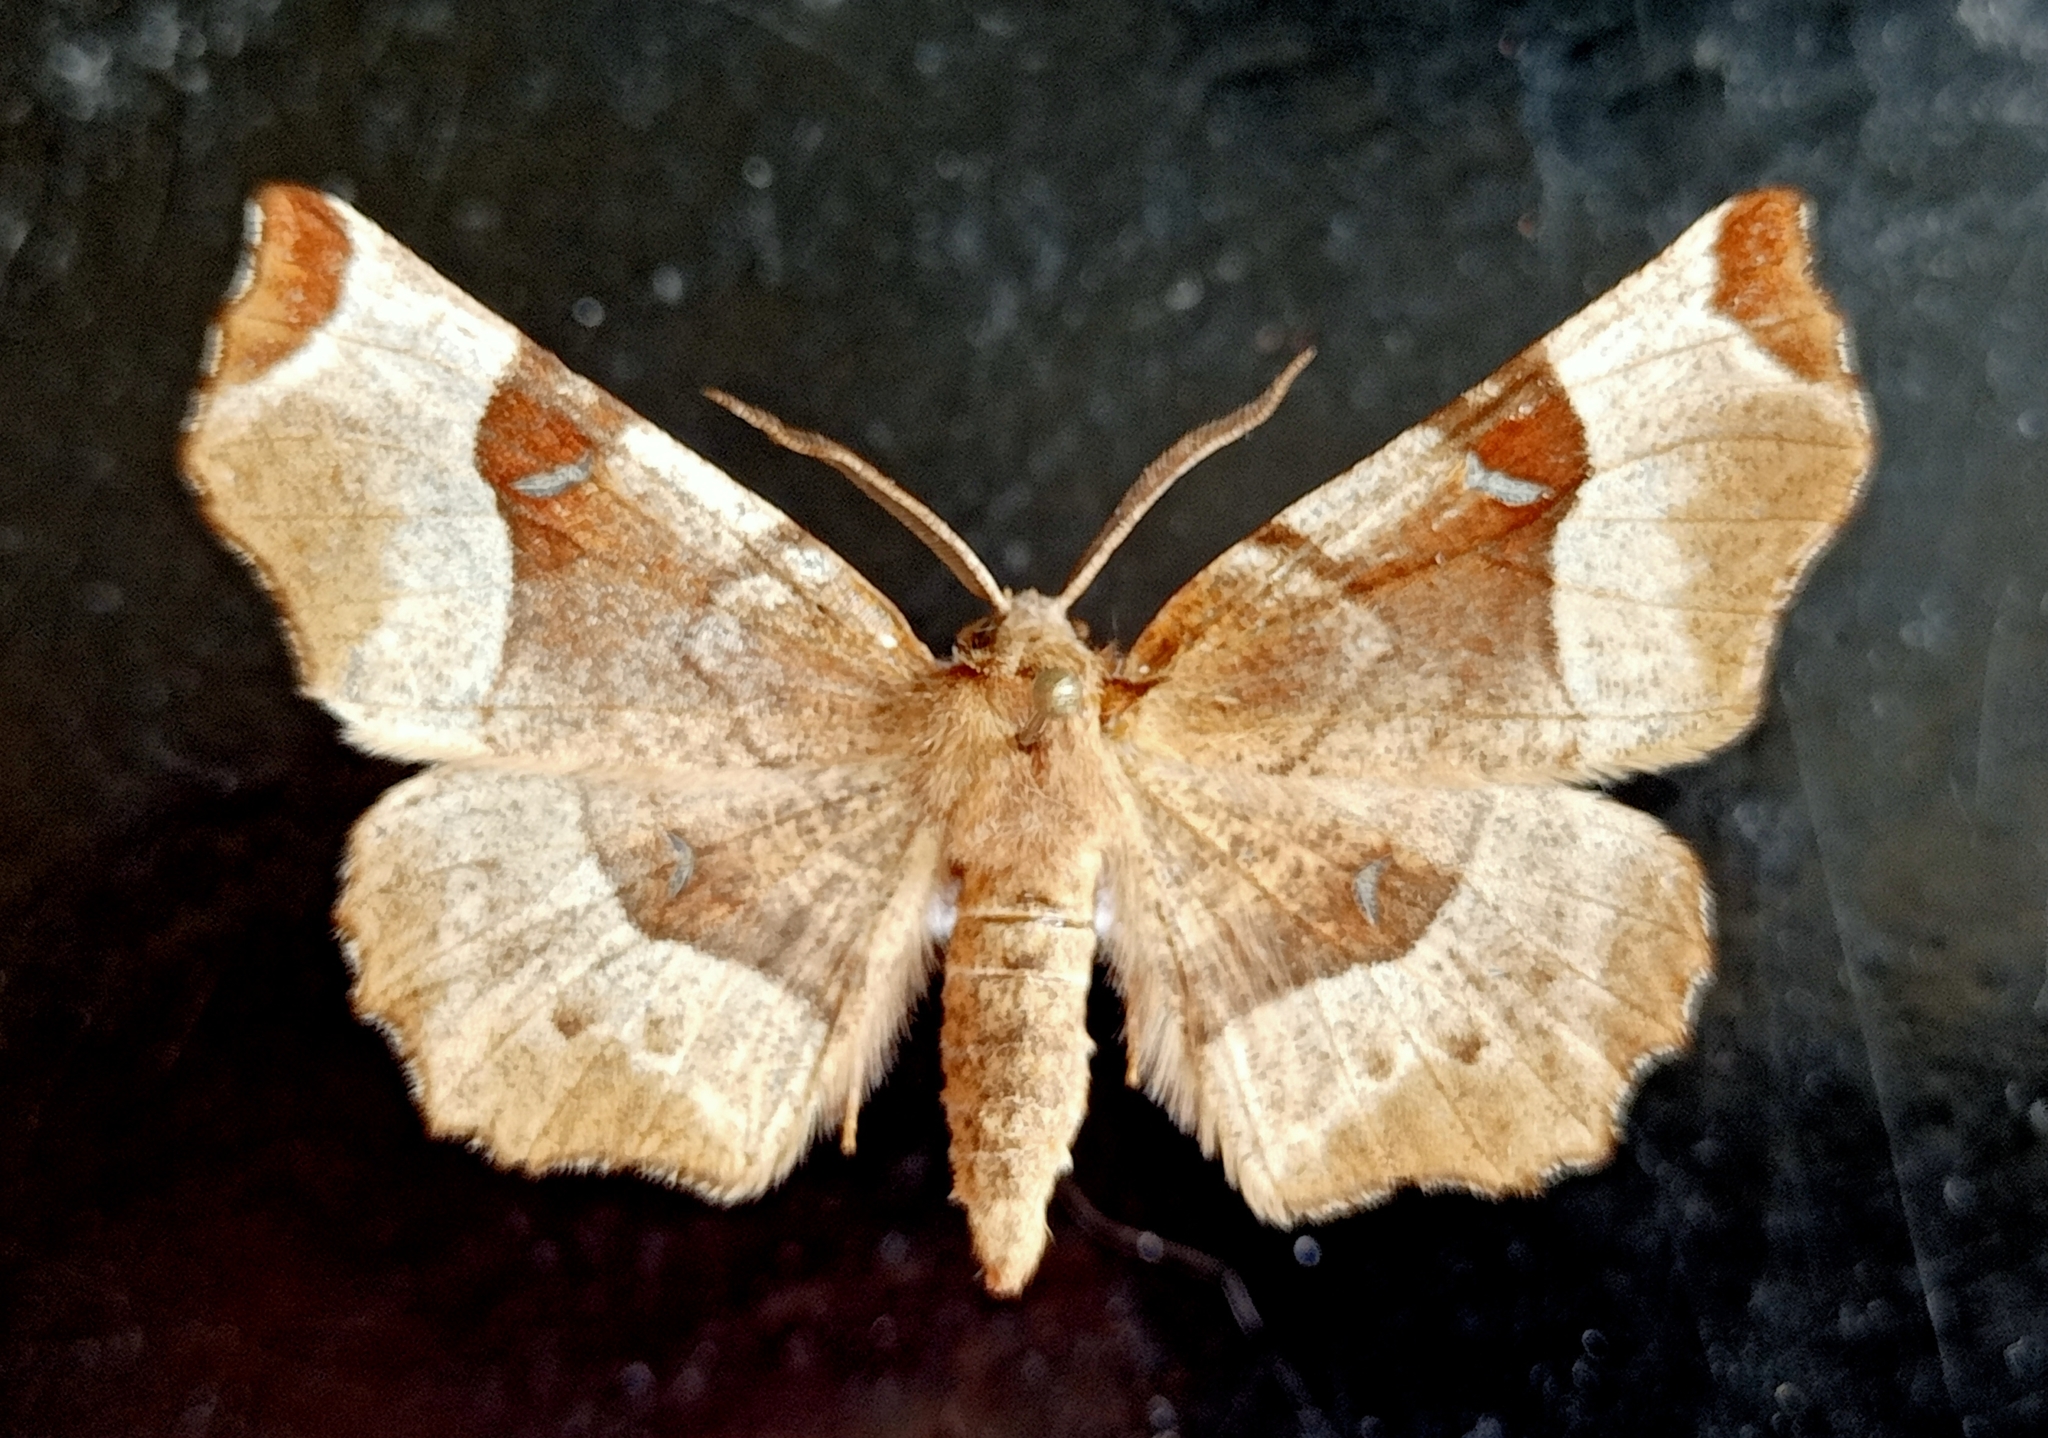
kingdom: Animalia
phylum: Arthropoda
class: Insecta
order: Lepidoptera
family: Geometridae
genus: Selenia
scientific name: Selenia tetralunaria
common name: Purple thorn
